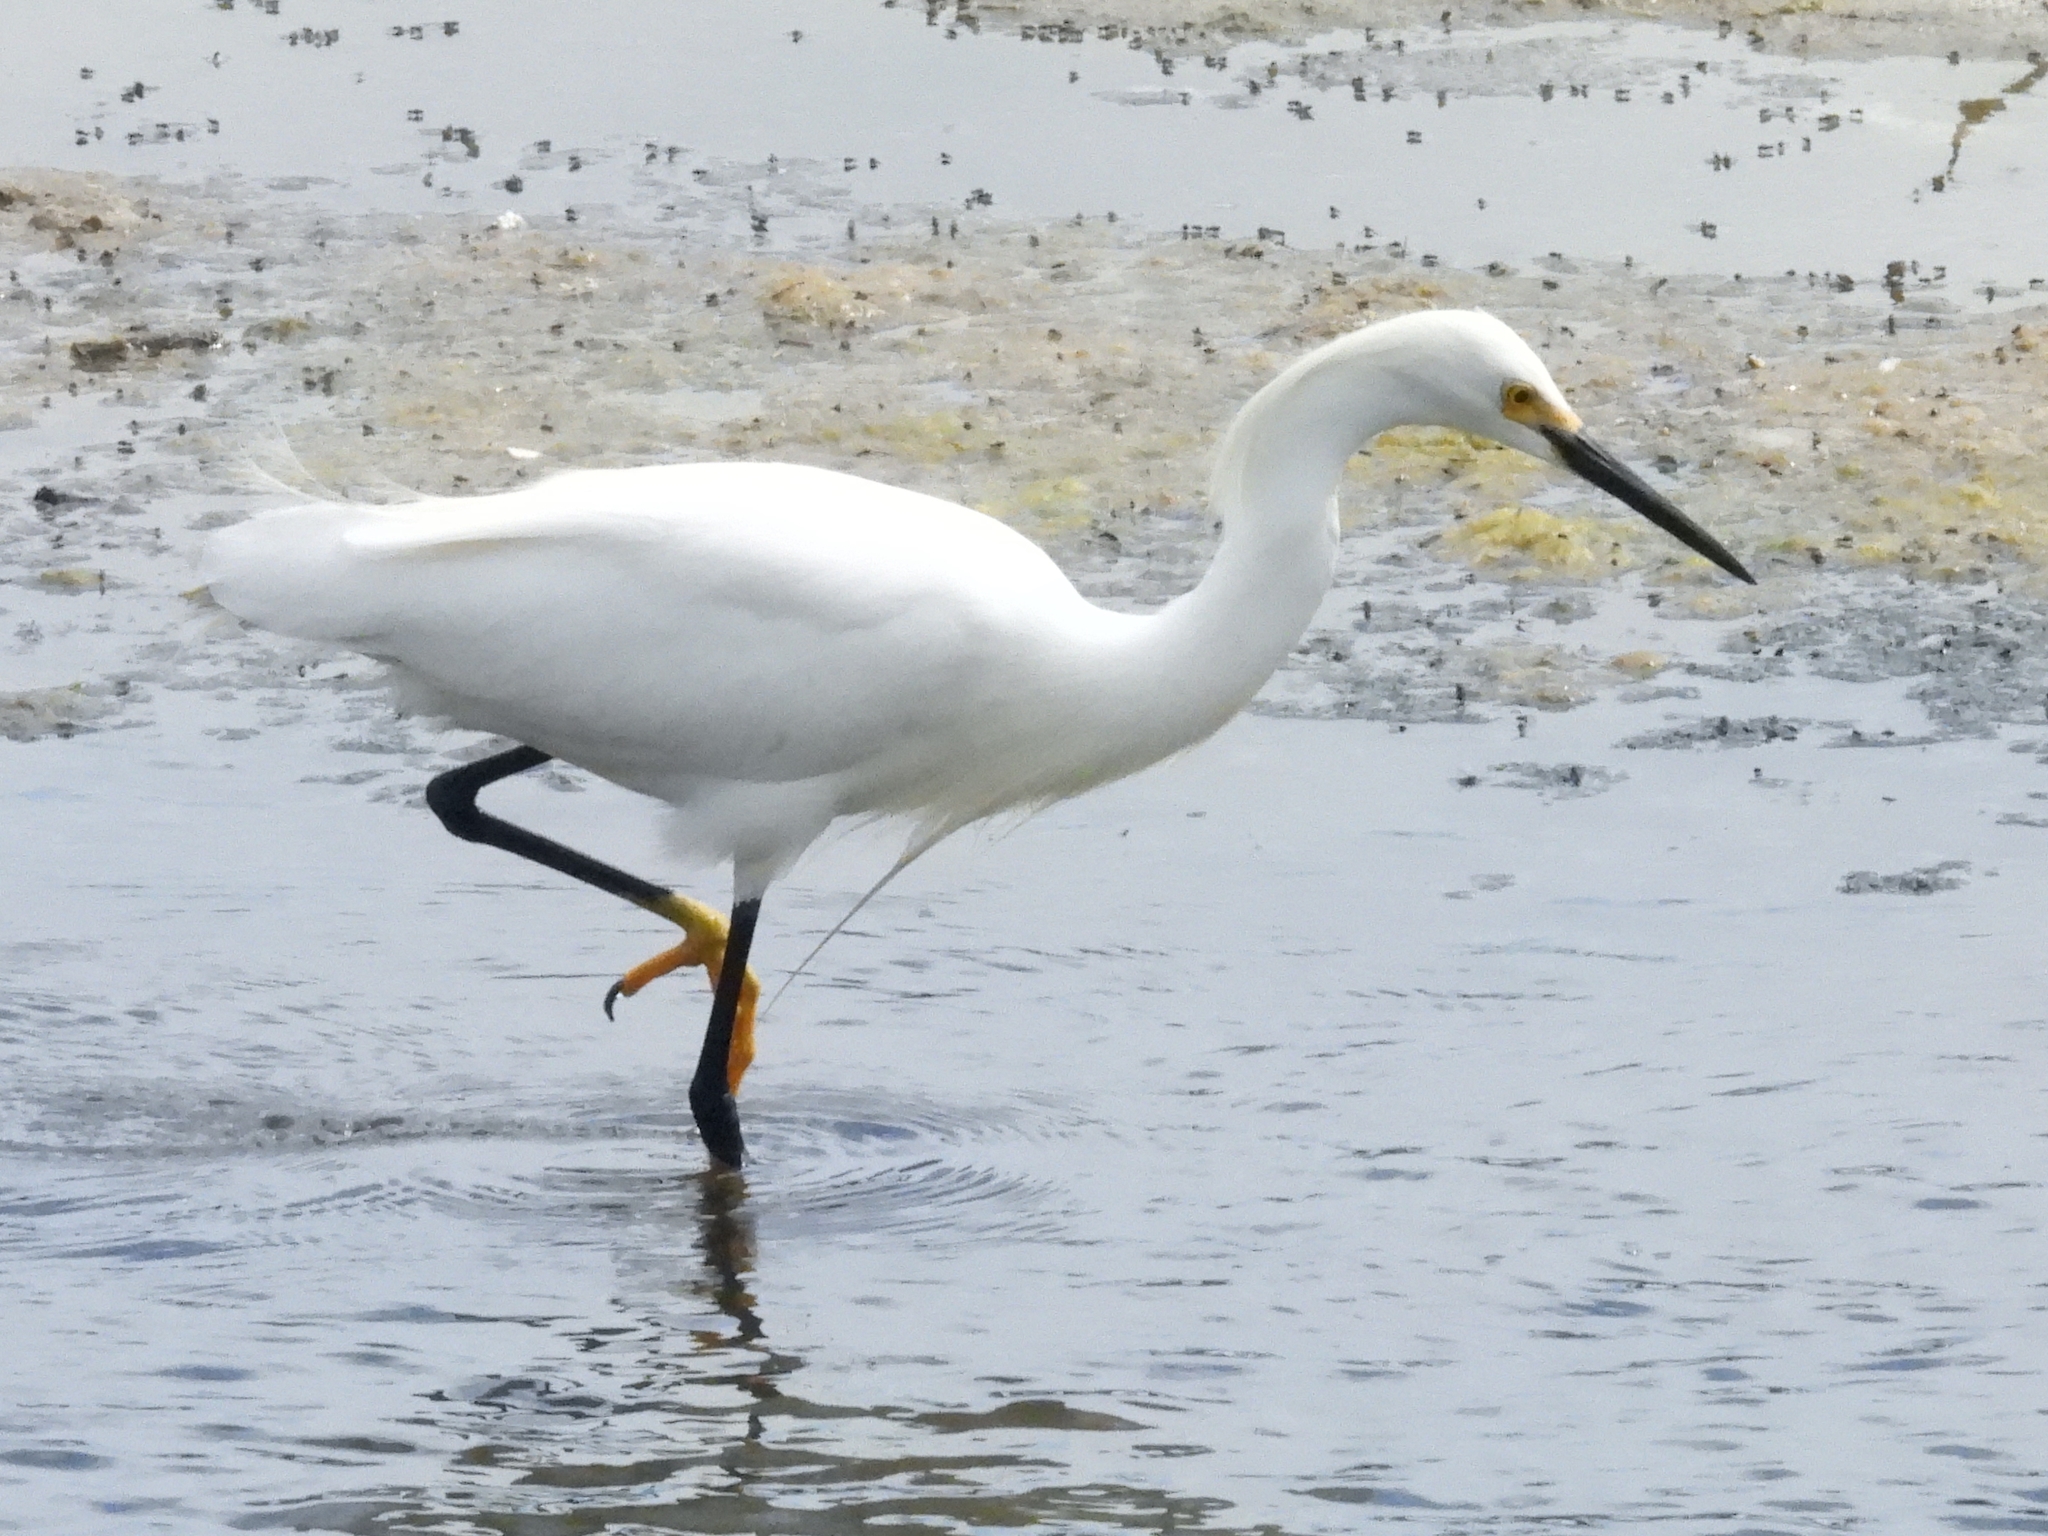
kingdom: Animalia
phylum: Chordata
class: Aves
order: Pelecaniformes
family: Ardeidae
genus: Egretta
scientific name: Egretta thula
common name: Snowy egret
